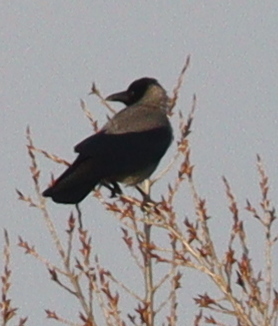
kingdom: Animalia
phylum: Chordata
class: Aves
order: Passeriformes
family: Corvidae
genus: Corvus
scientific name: Corvus cornix
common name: Hooded crow
